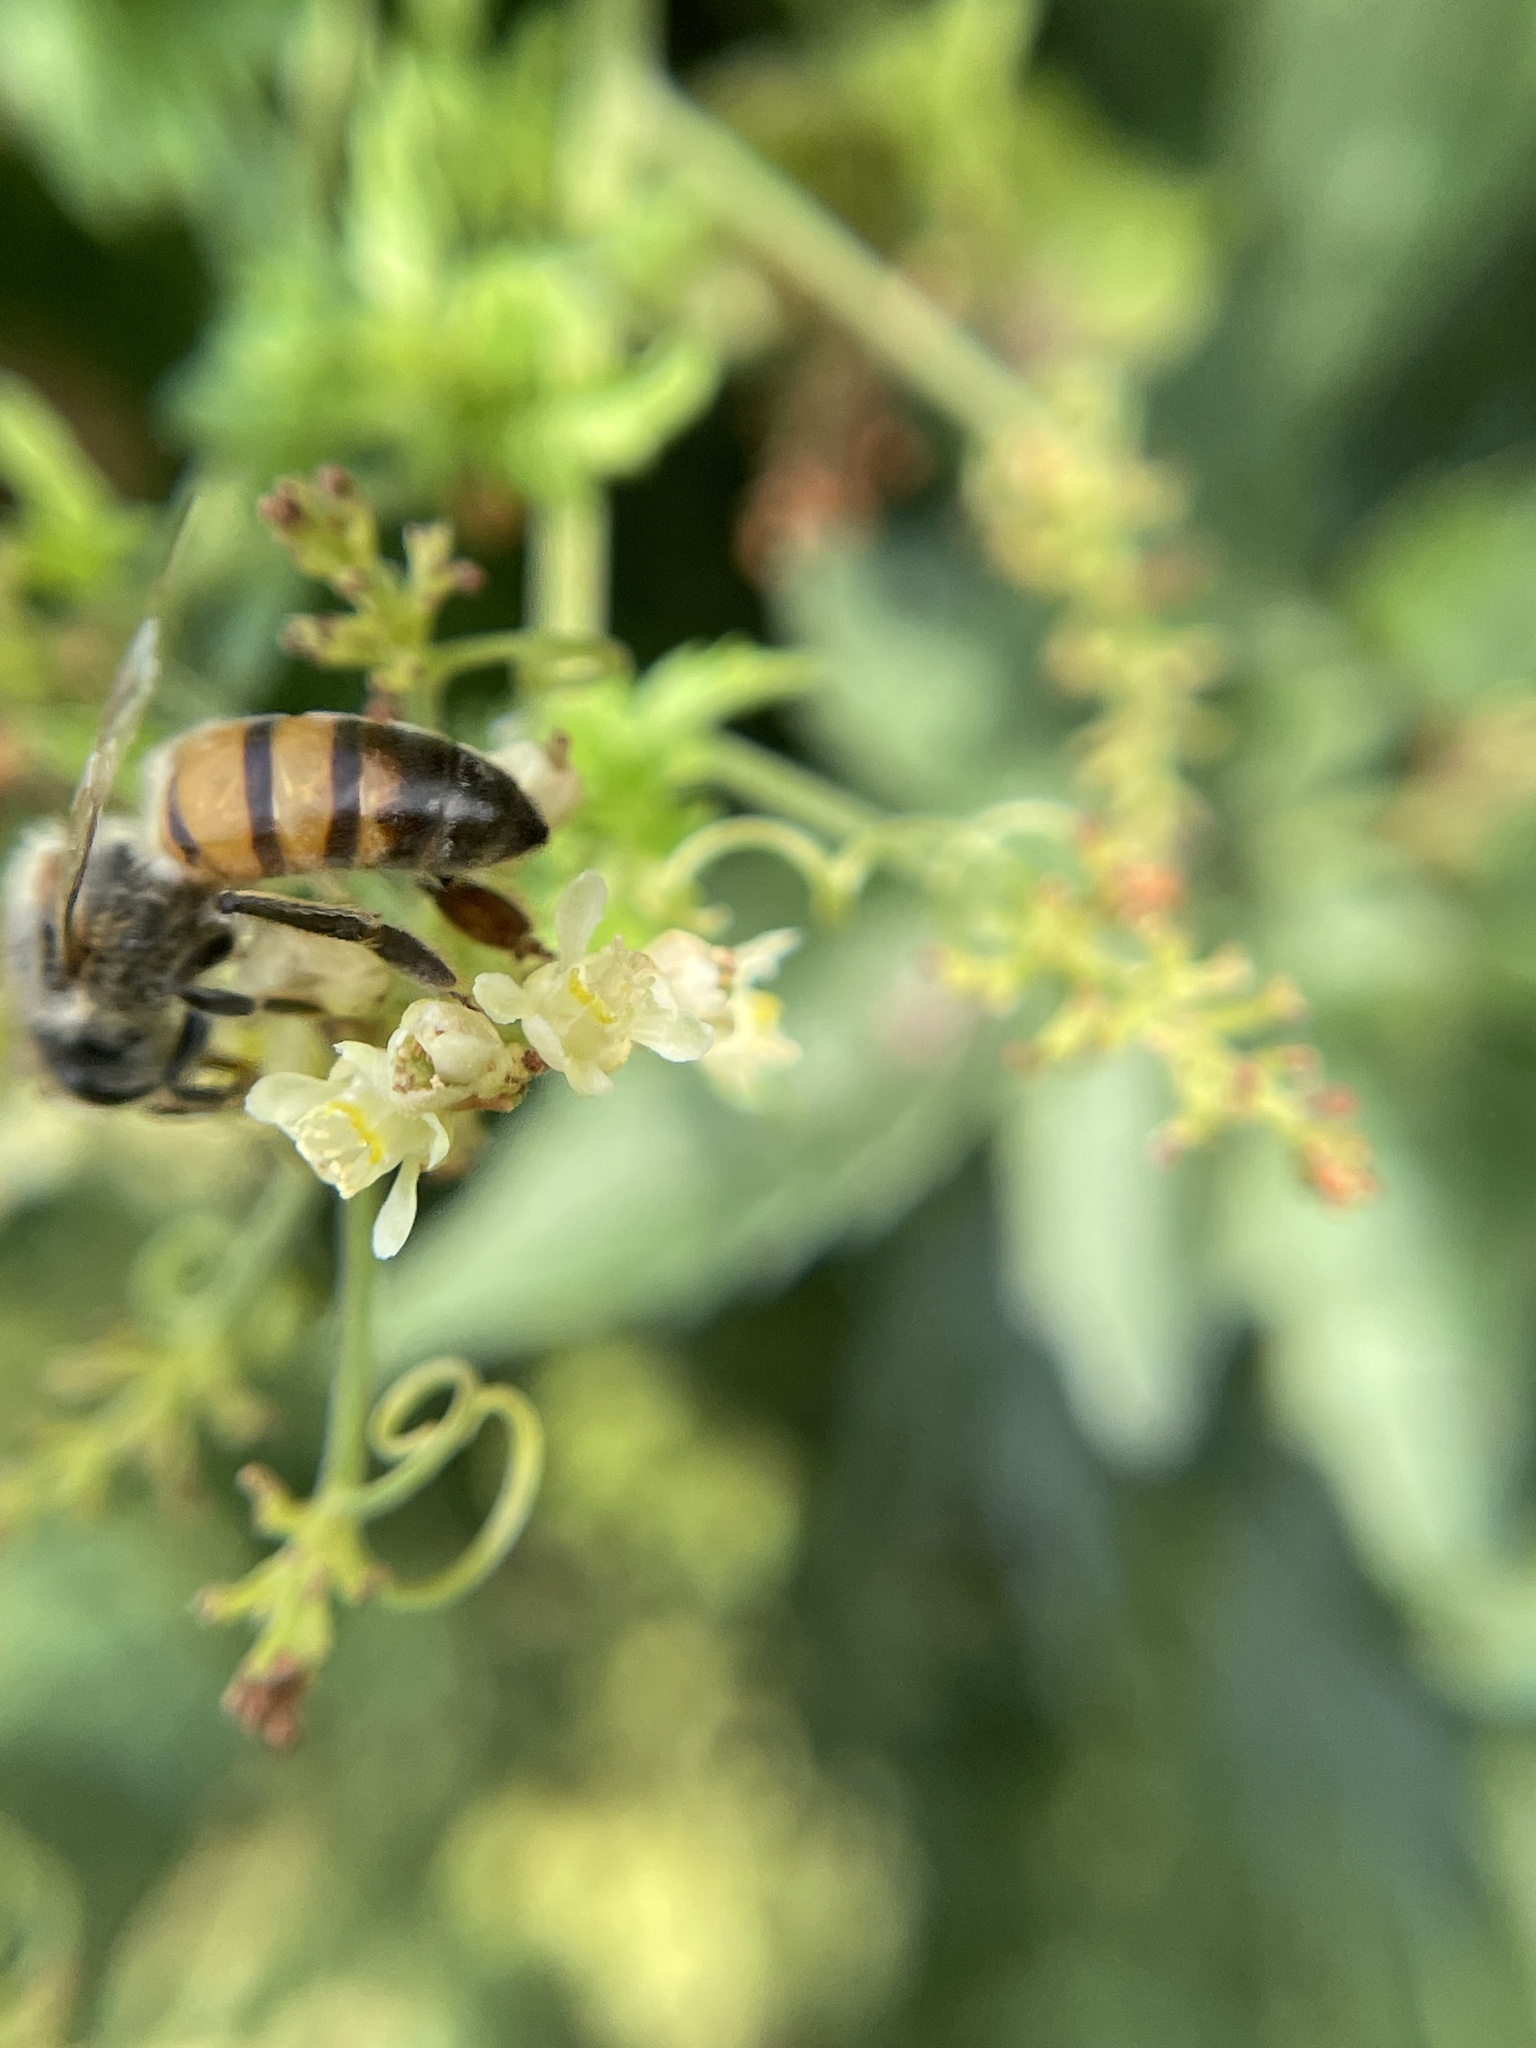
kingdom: Animalia
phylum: Arthropoda
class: Insecta
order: Hymenoptera
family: Apidae
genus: Apis
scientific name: Apis mellifera
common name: Honey bee
